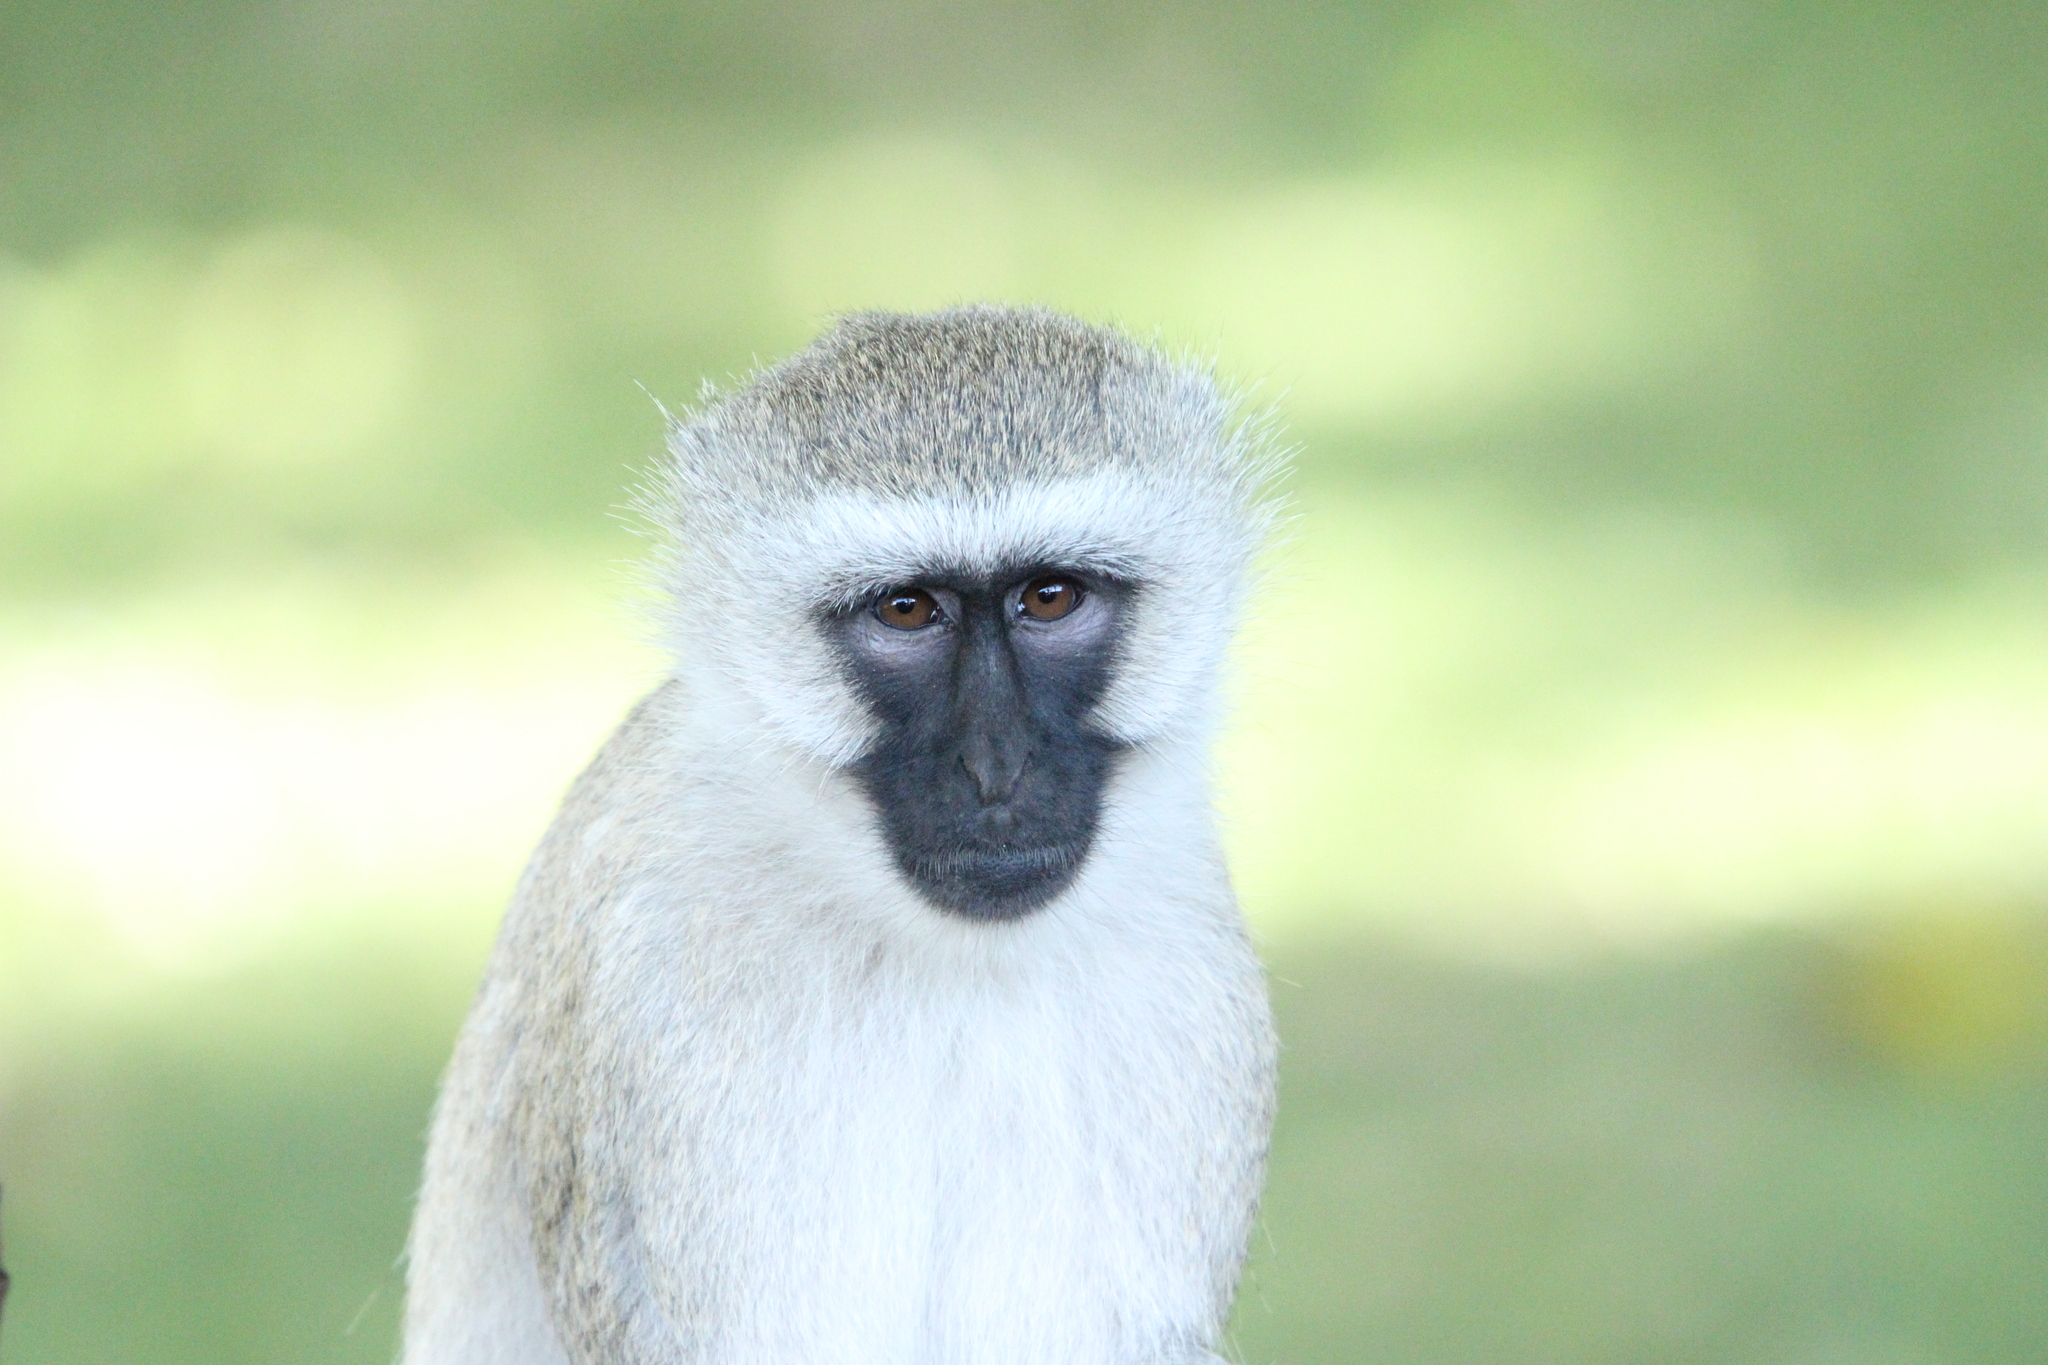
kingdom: Animalia
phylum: Chordata
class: Mammalia
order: Primates
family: Cercopithecidae
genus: Chlorocebus
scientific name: Chlorocebus pygerythrus
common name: Vervet monkey
